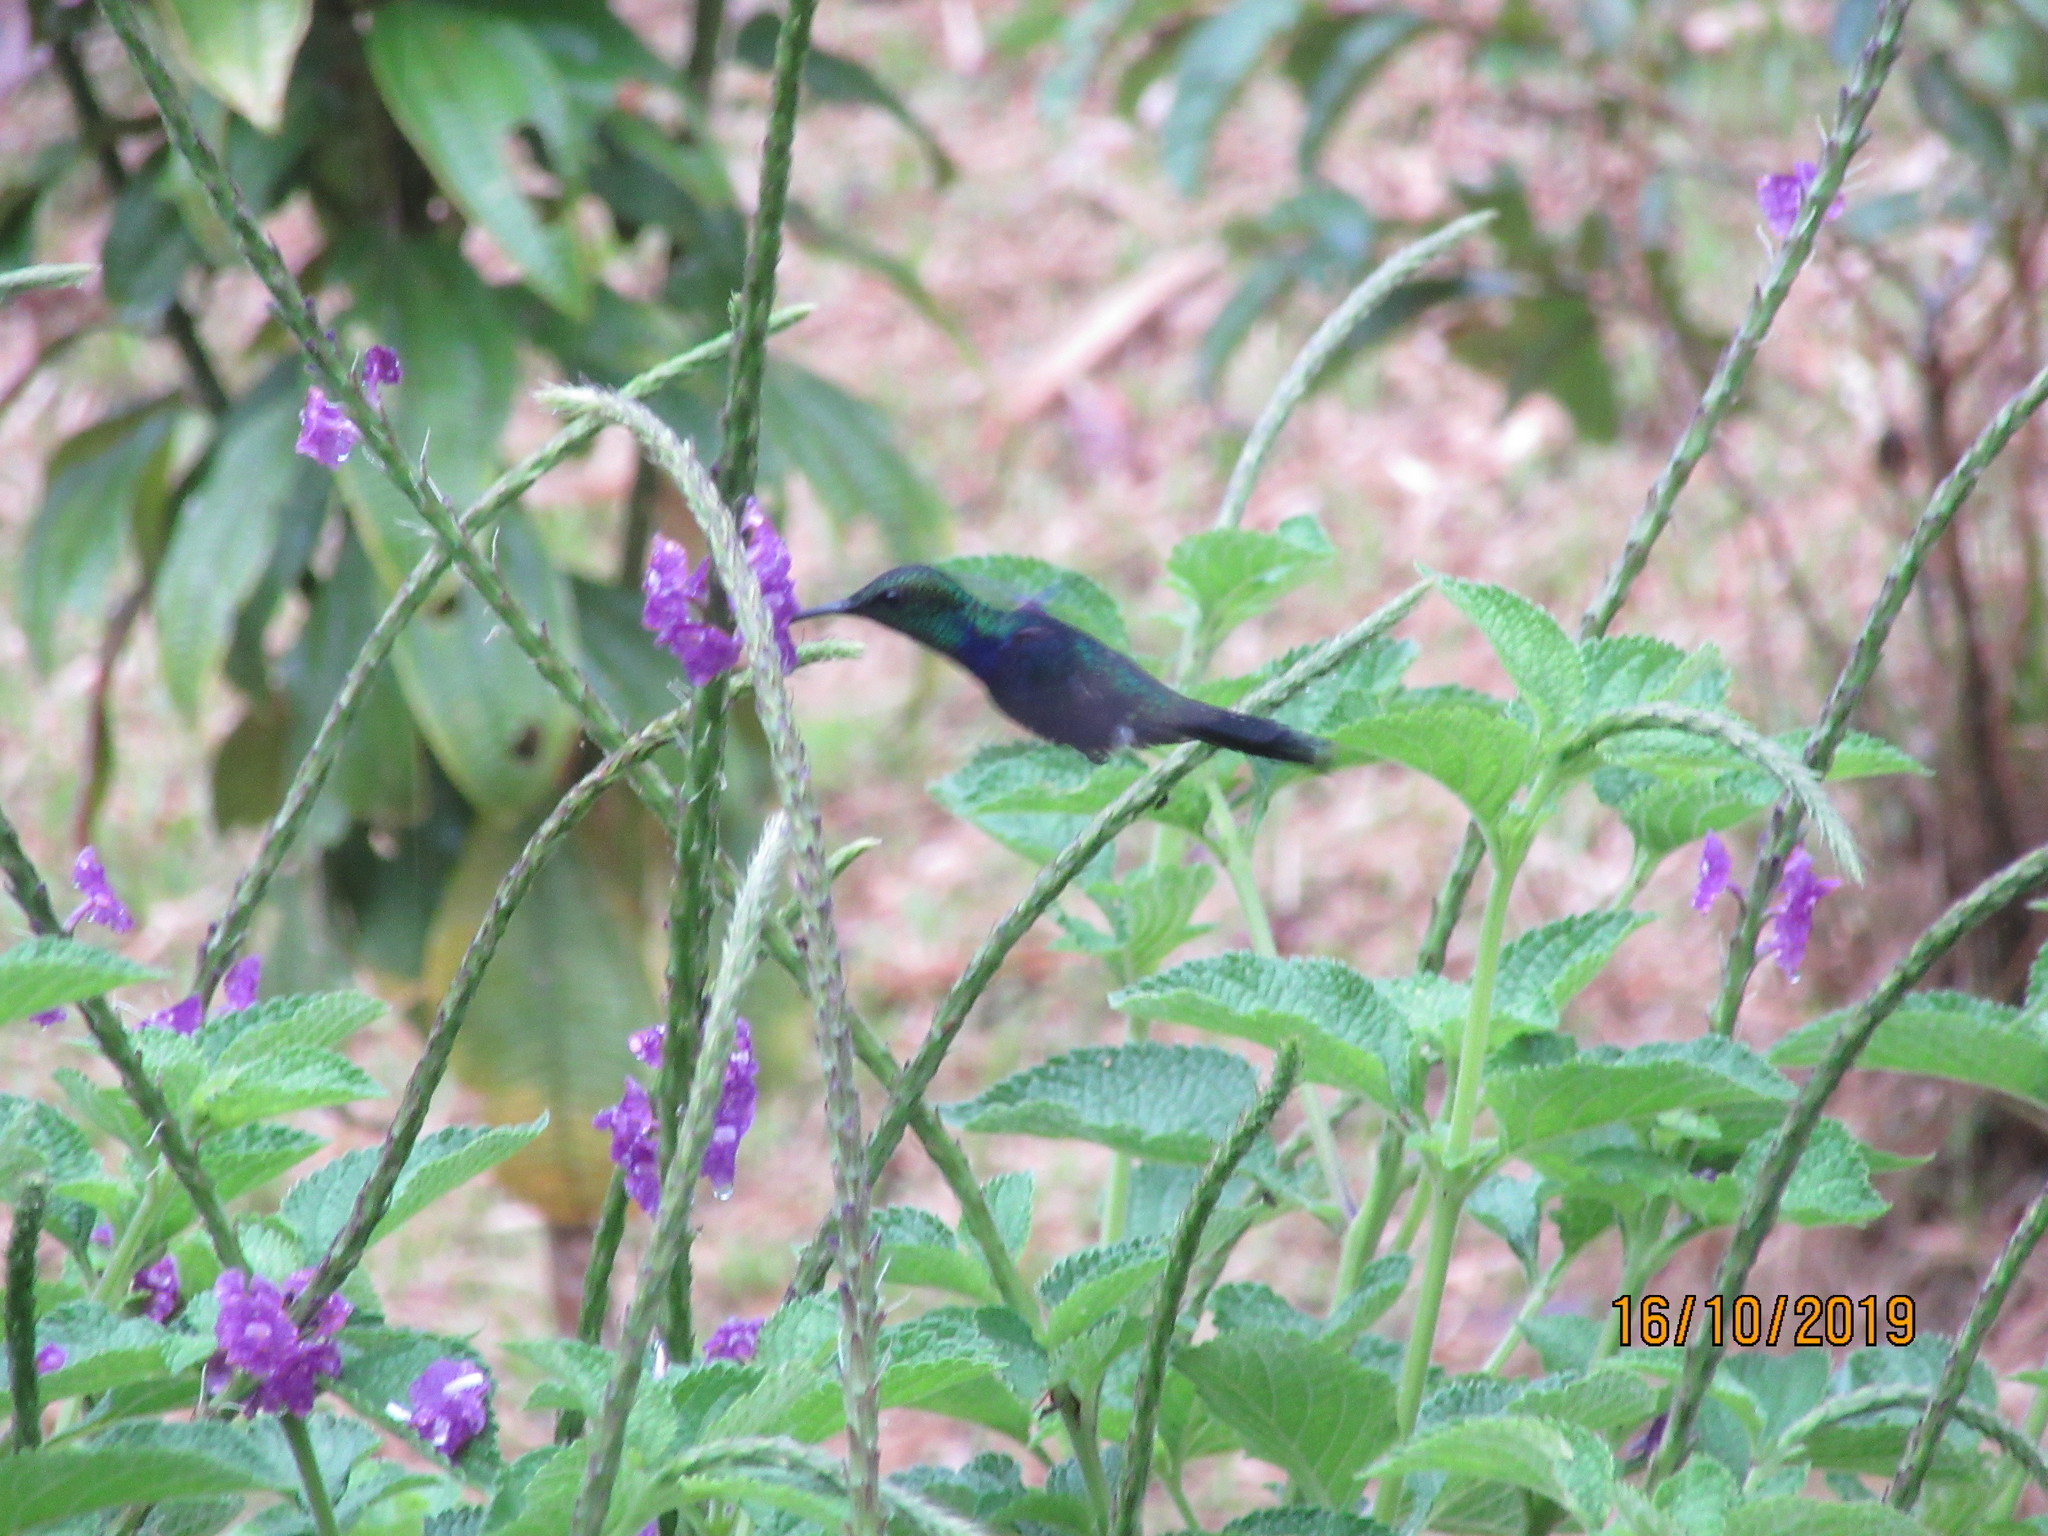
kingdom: Animalia
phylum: Chordata
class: Aves
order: Apodiformes
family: Trochilidae
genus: Thalurania
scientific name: Thalurania furcata
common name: Fork-tailed woodnymph
